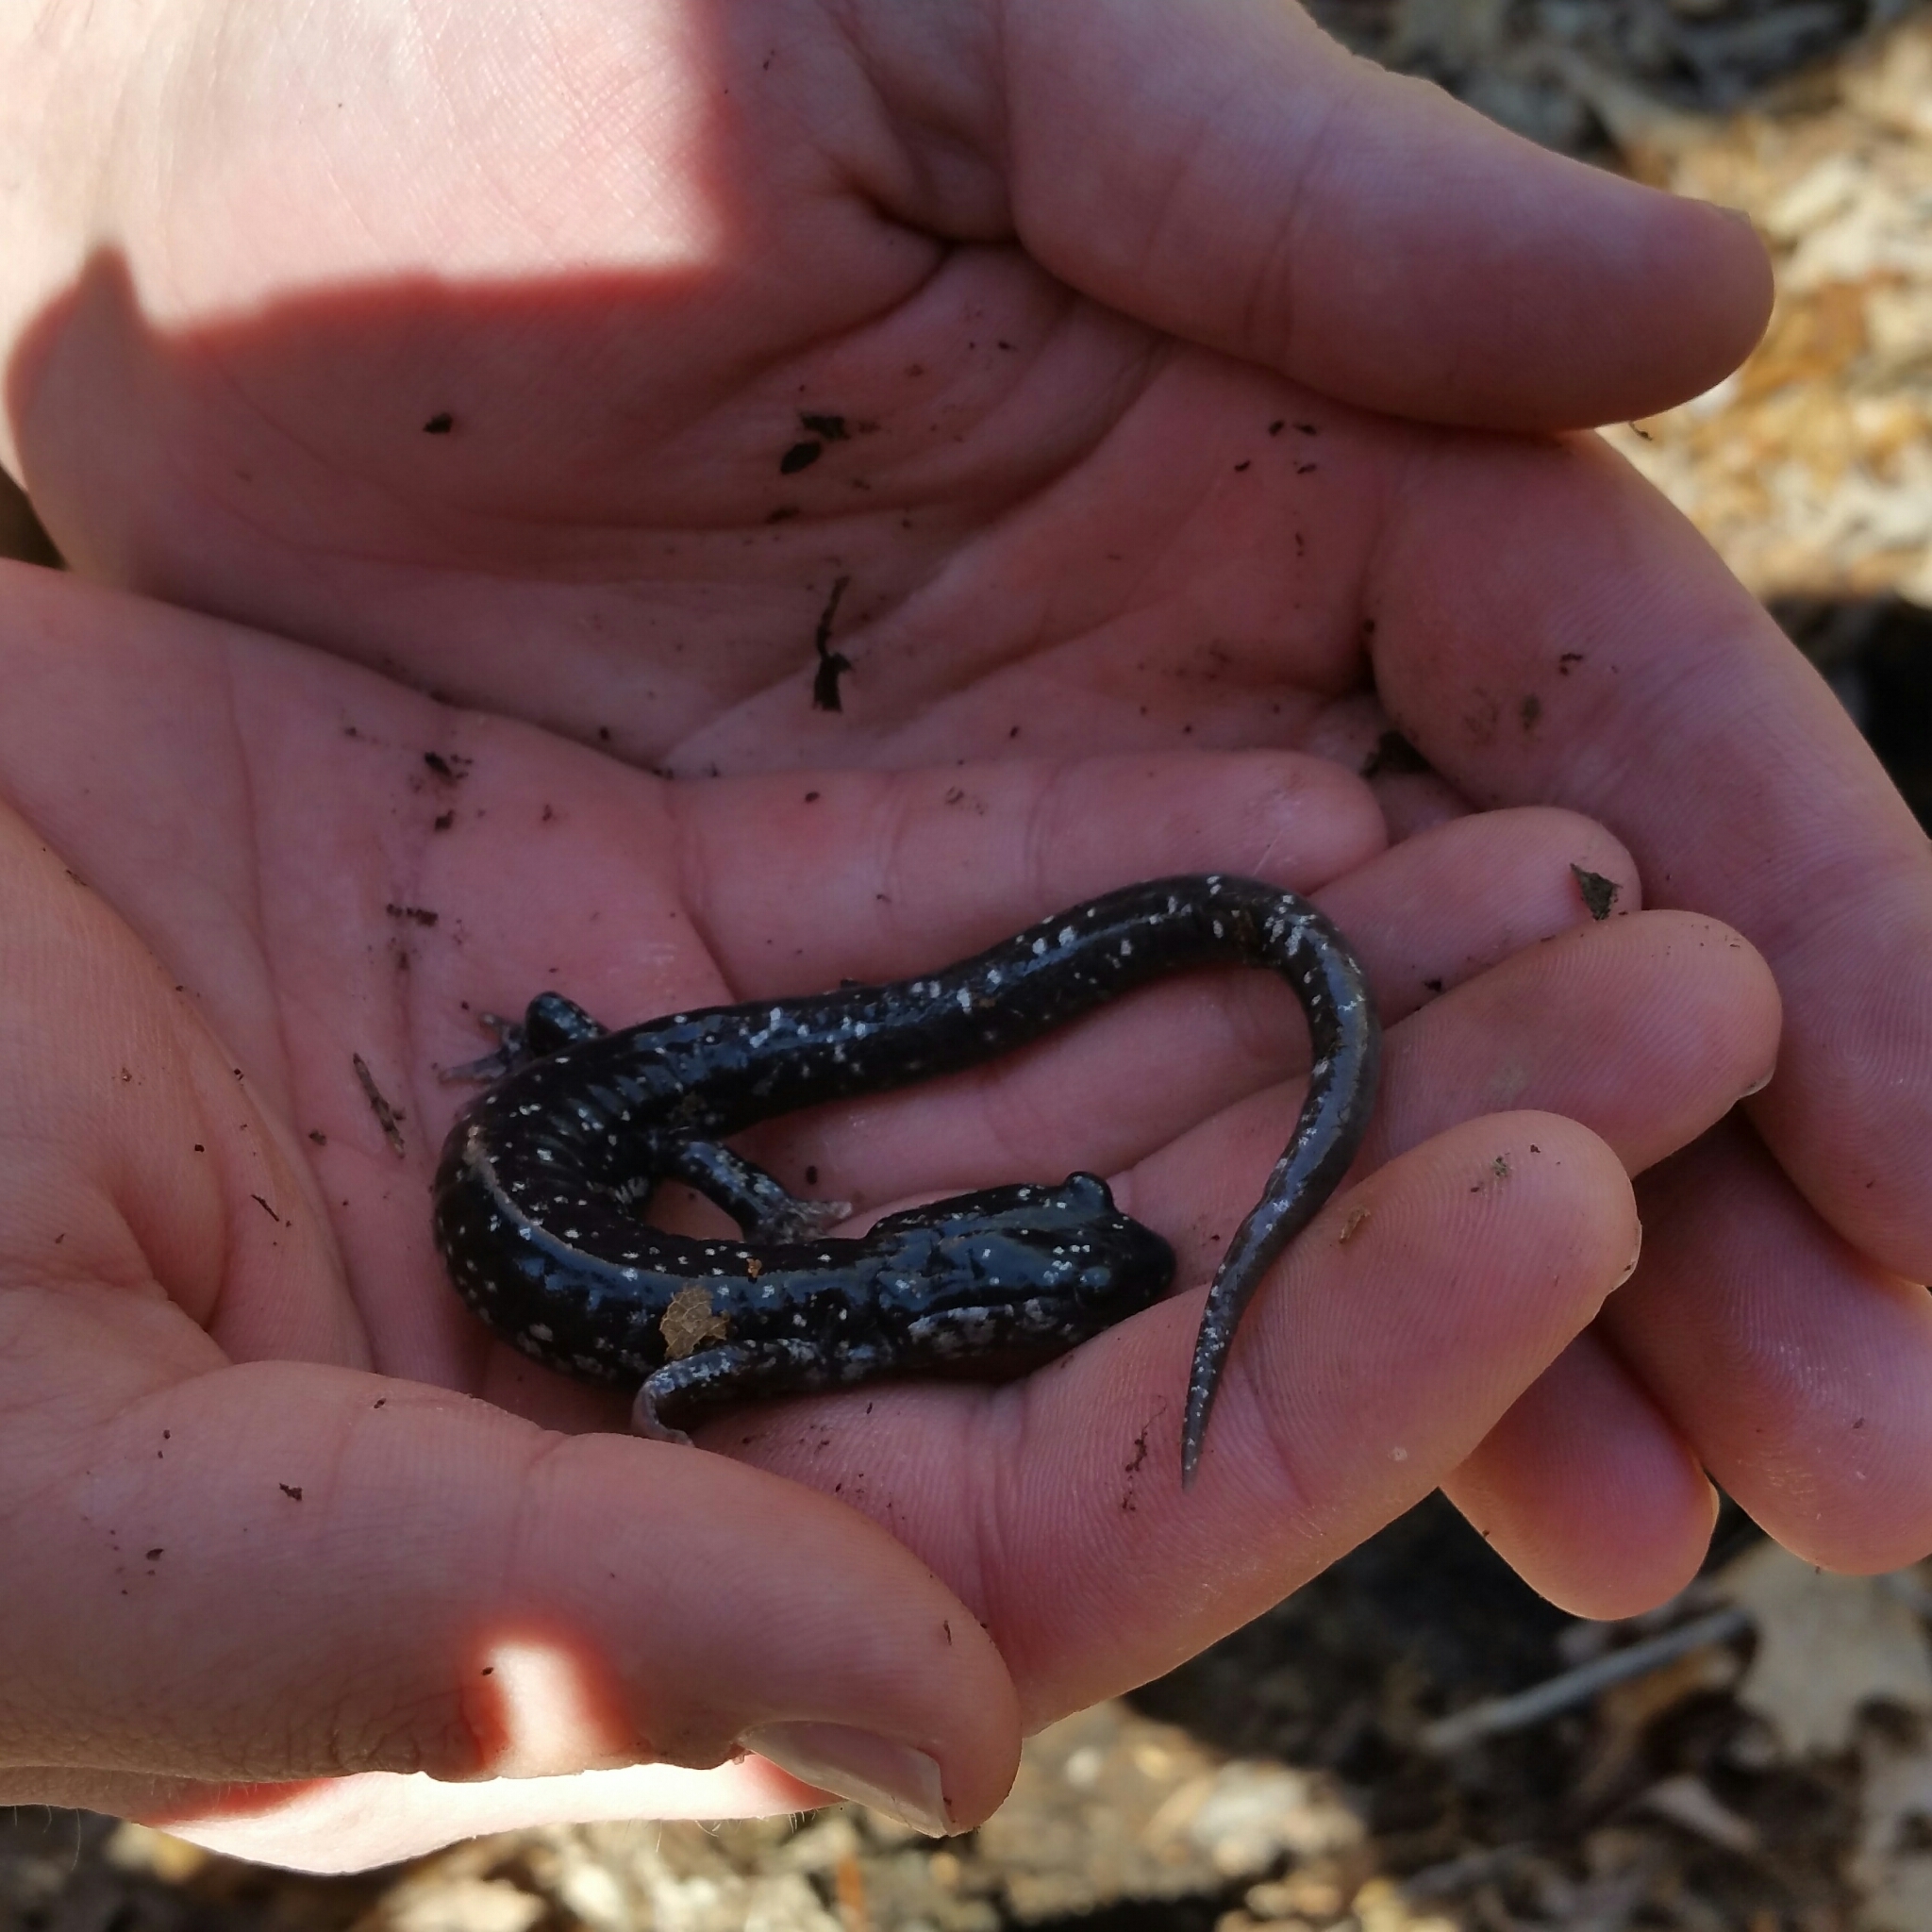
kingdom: Animalia
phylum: Chordata
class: Amphibia
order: Caudata
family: Plethodontidae
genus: Plethodon
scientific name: Plethodon glutinosus
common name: Northern slimy salamander
